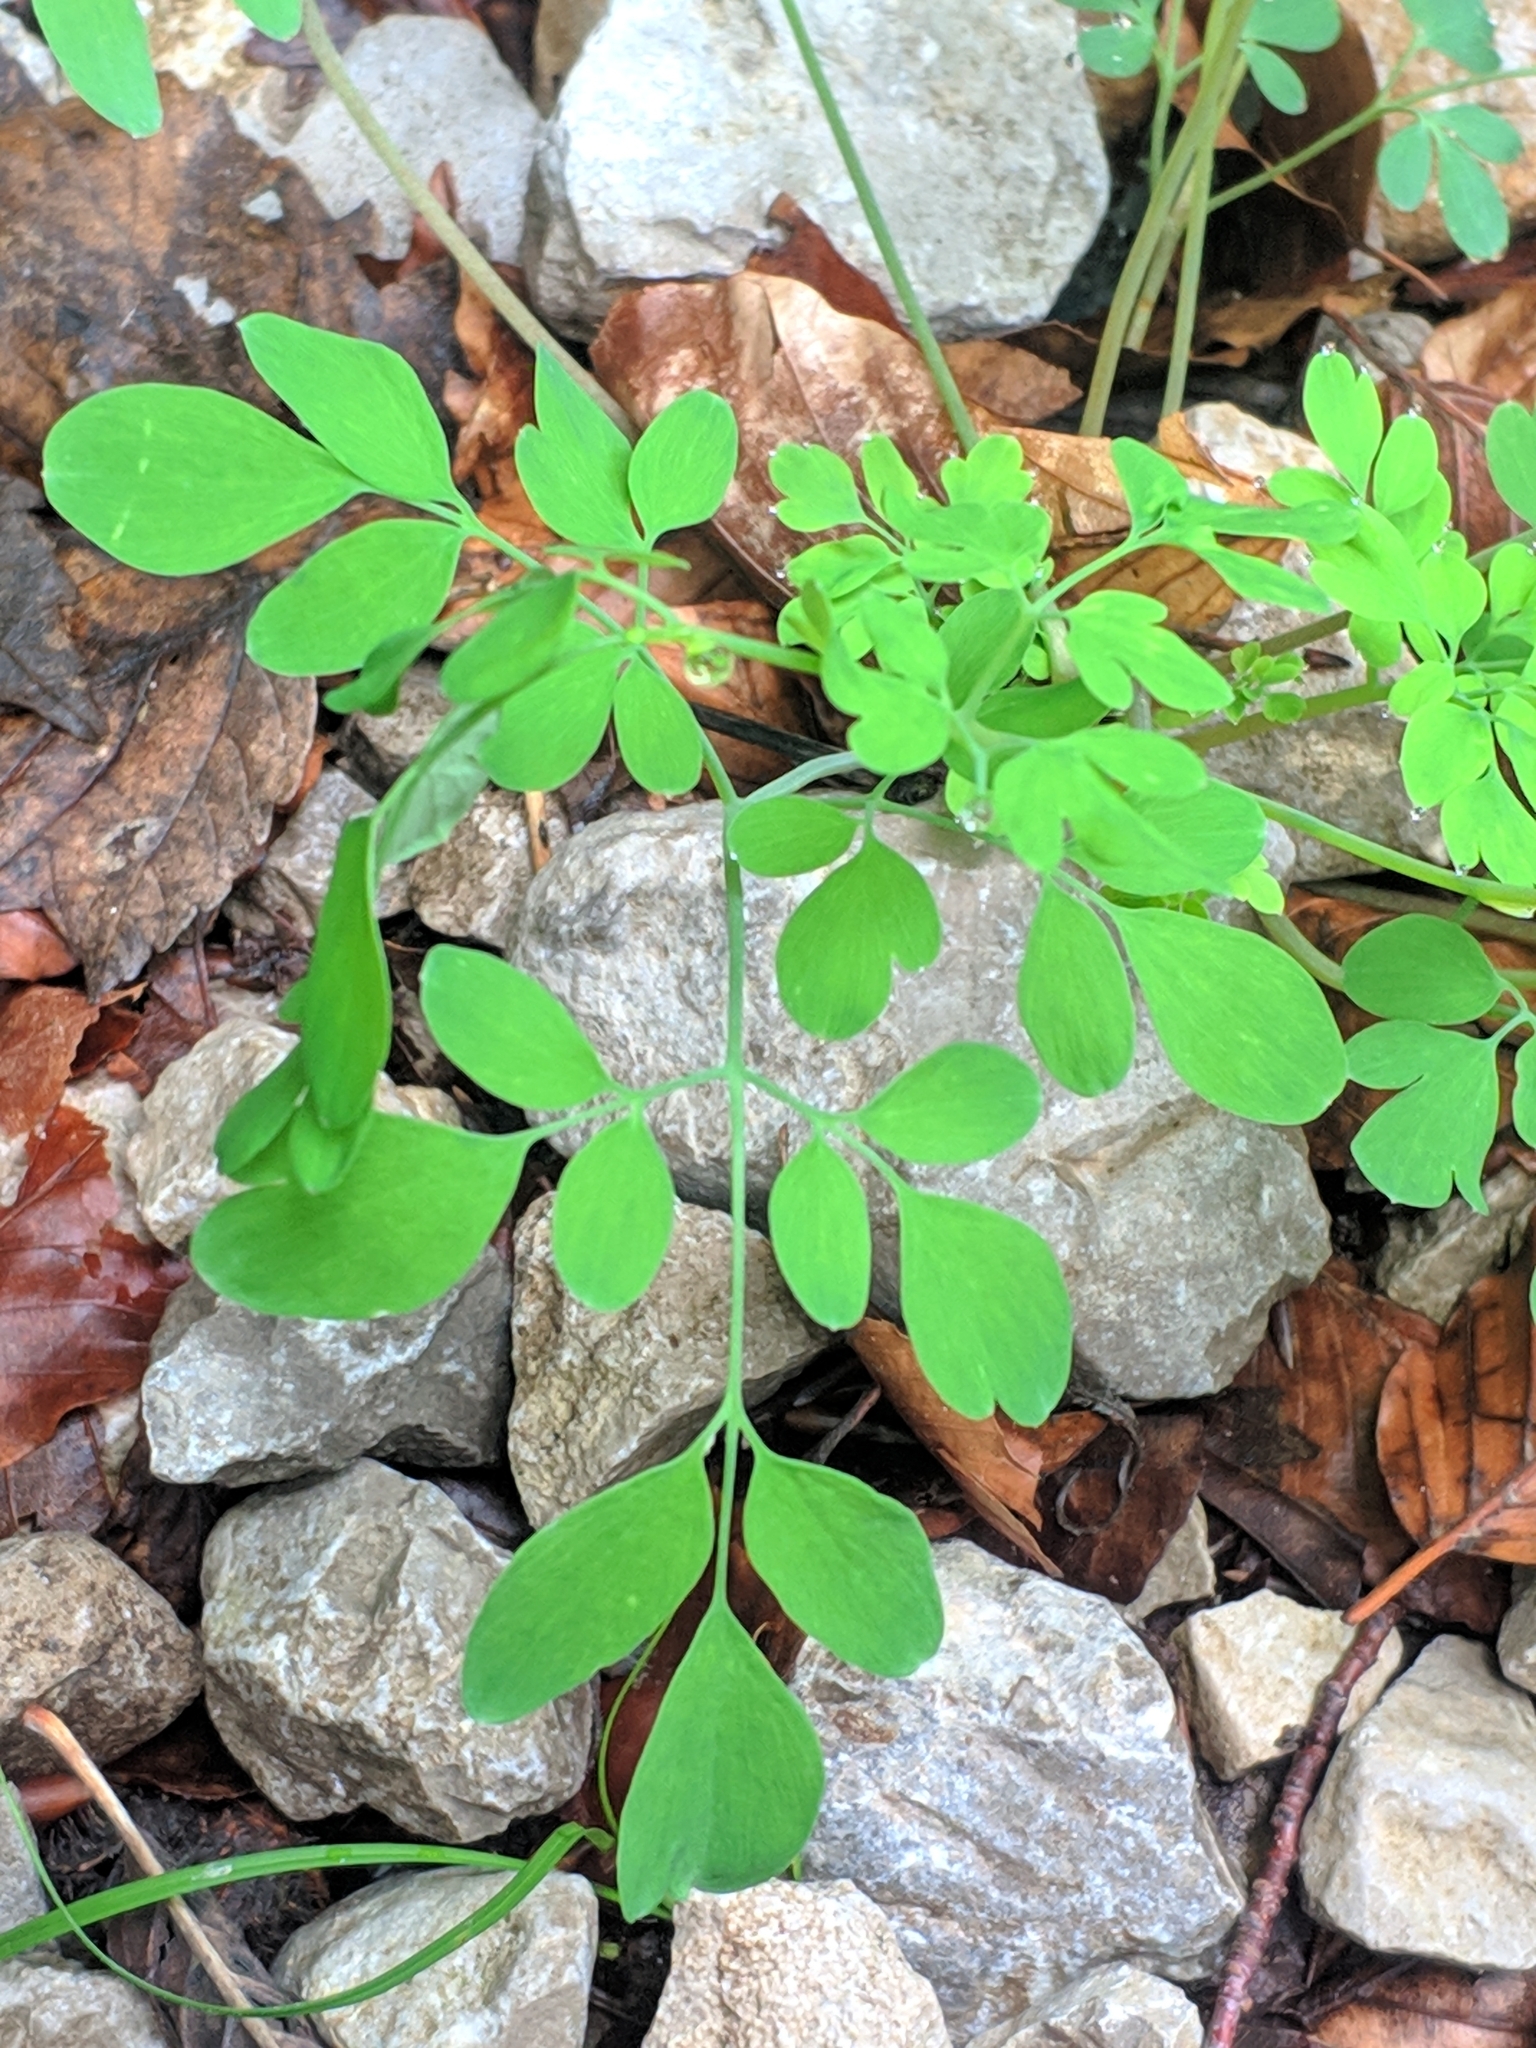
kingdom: Plantae
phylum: Tracheophyta
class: Magnoliopsida
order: Ranunculales
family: Papaveraceae
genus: Pseudofumaria
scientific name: Pseudofumaria lutea
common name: Yellow corydalis
